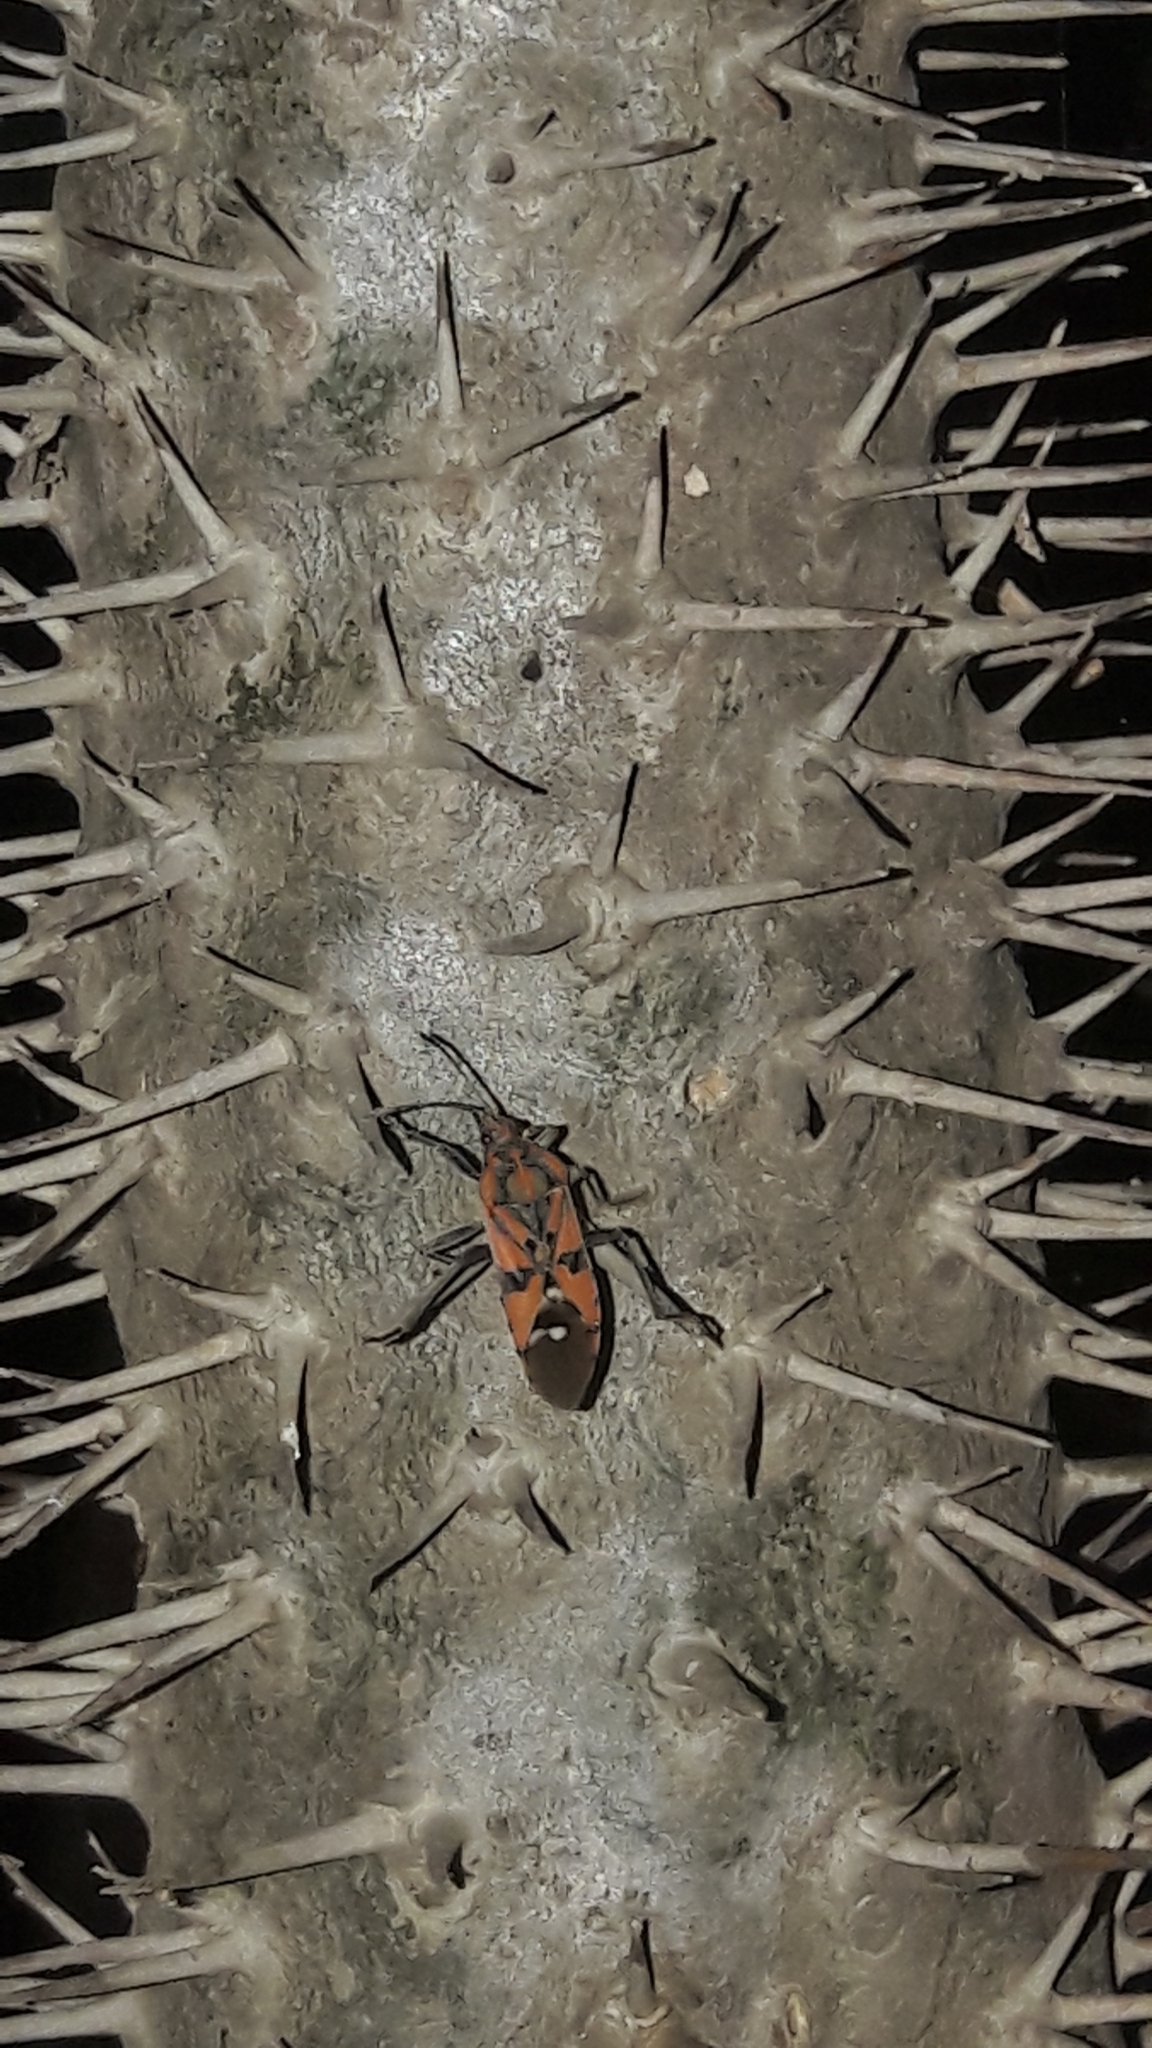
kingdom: Animalia
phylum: Arthropoda
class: Insecta
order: Hemiptera
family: Lygaeidae
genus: Spilostethus
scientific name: Spilostethus pandurus
